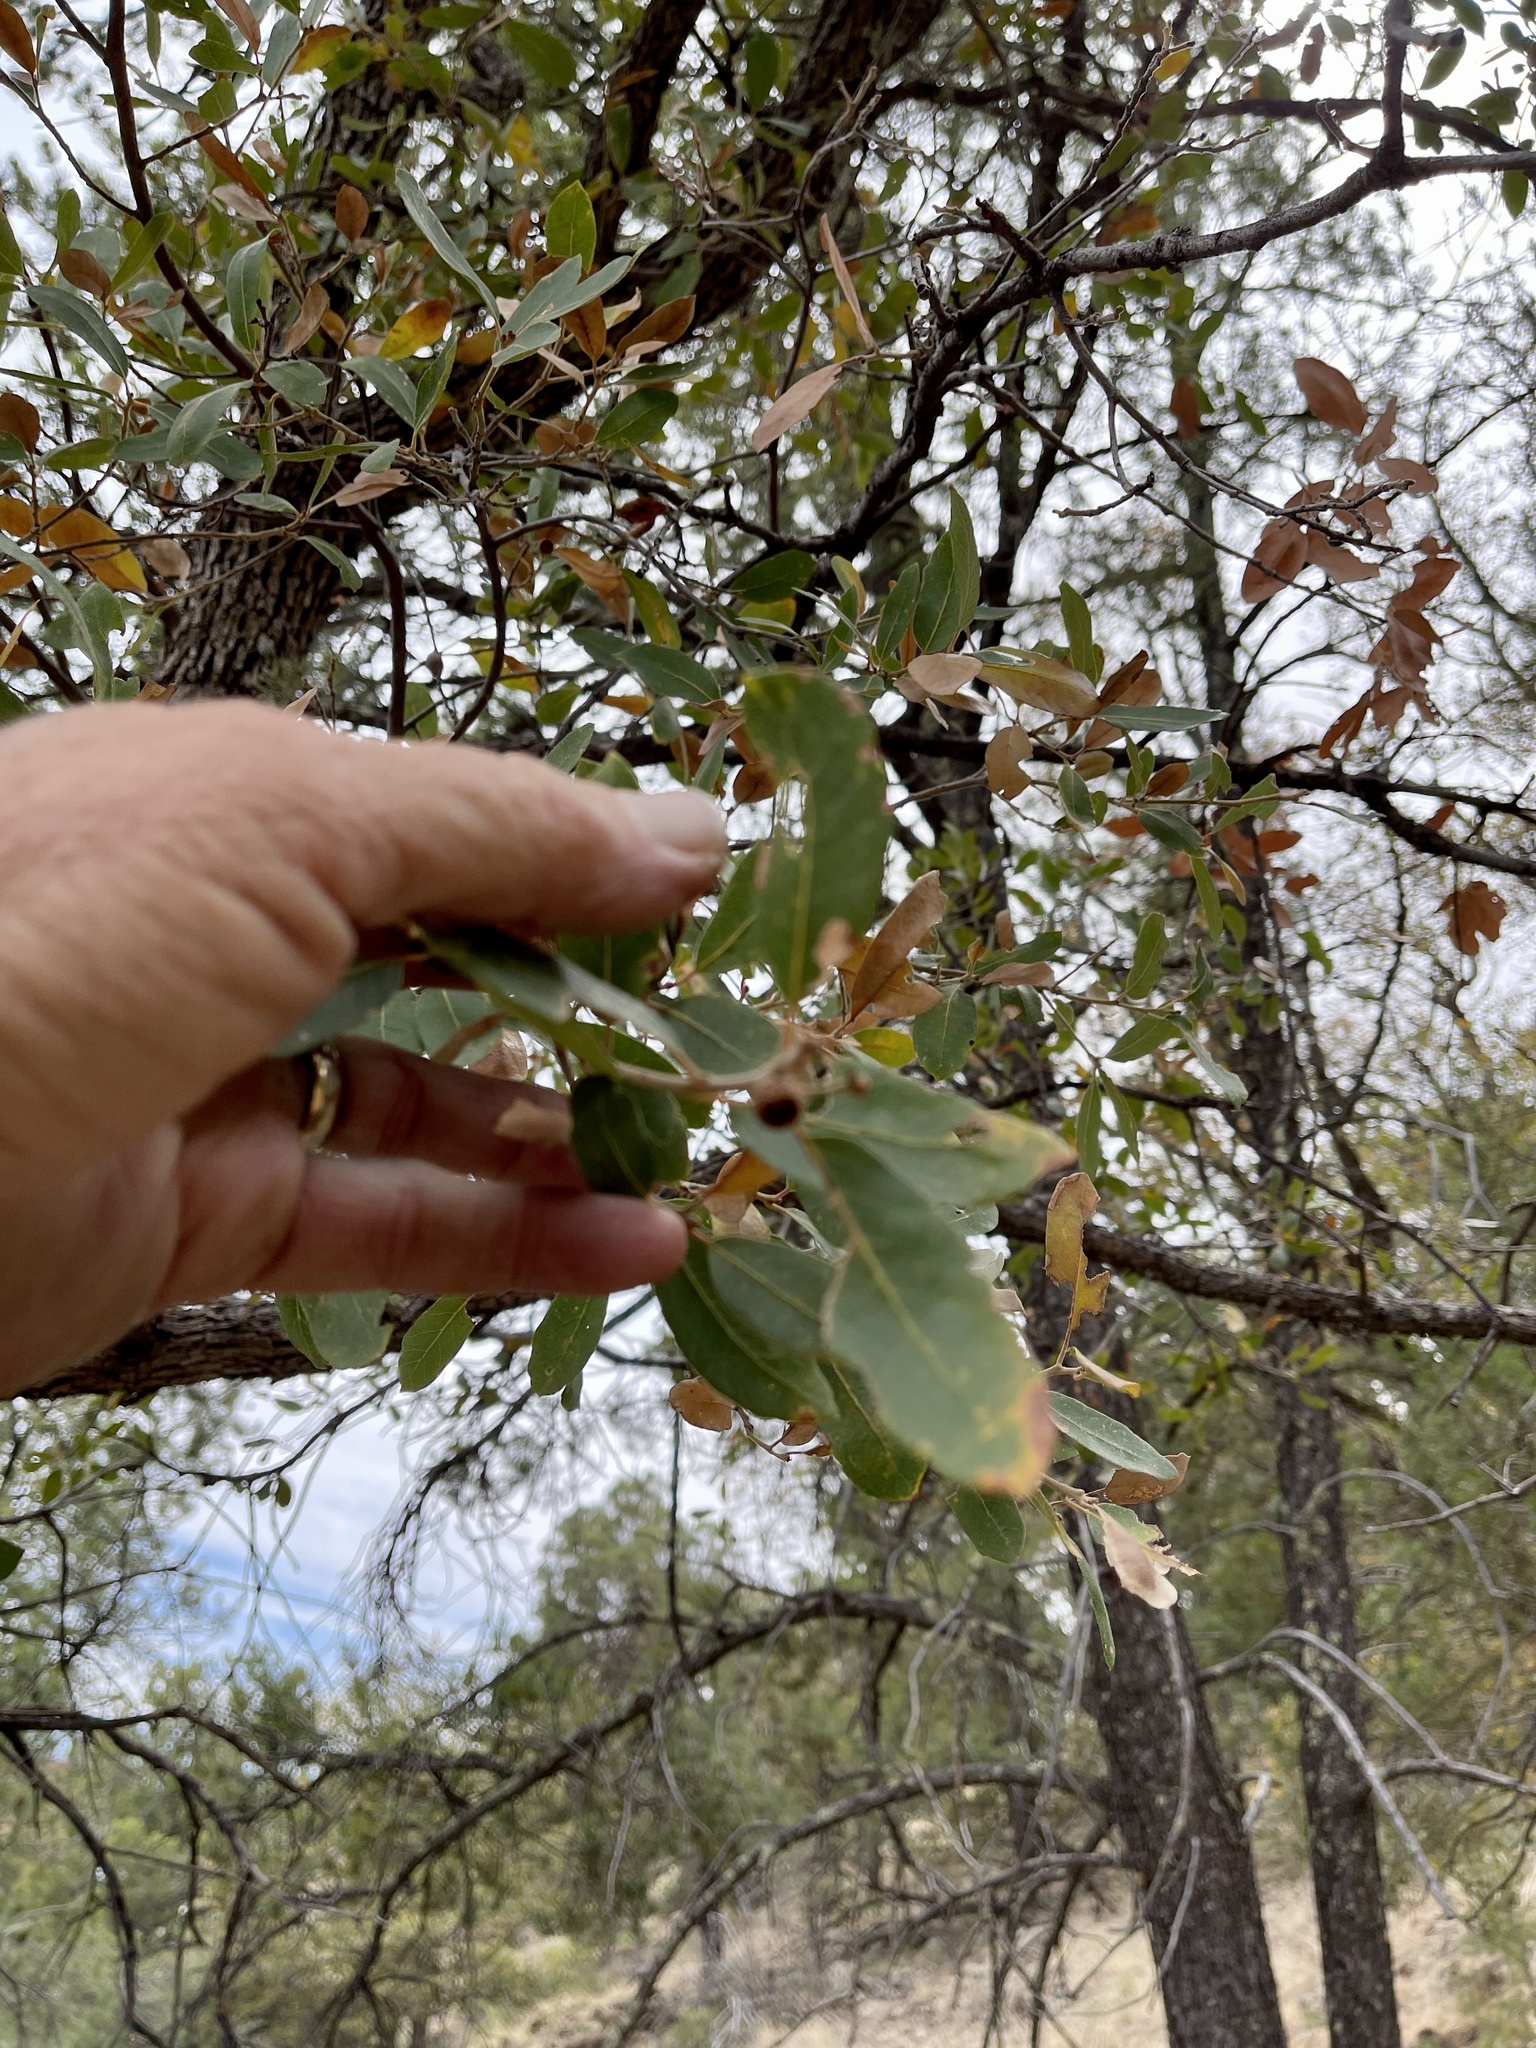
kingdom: Plantae
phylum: Tracheophyta
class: Magnoliopsida
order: Fagales
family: Fagaceae
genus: Quercus
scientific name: Quercus emoryi
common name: Emory oak
